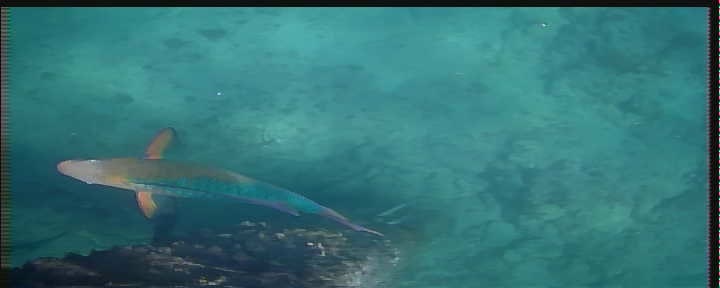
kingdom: Animalia
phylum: Chordata
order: Perciformes
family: Scaridae
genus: Scarus
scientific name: Scarus guacamaia
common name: Rainbow parrotfish
